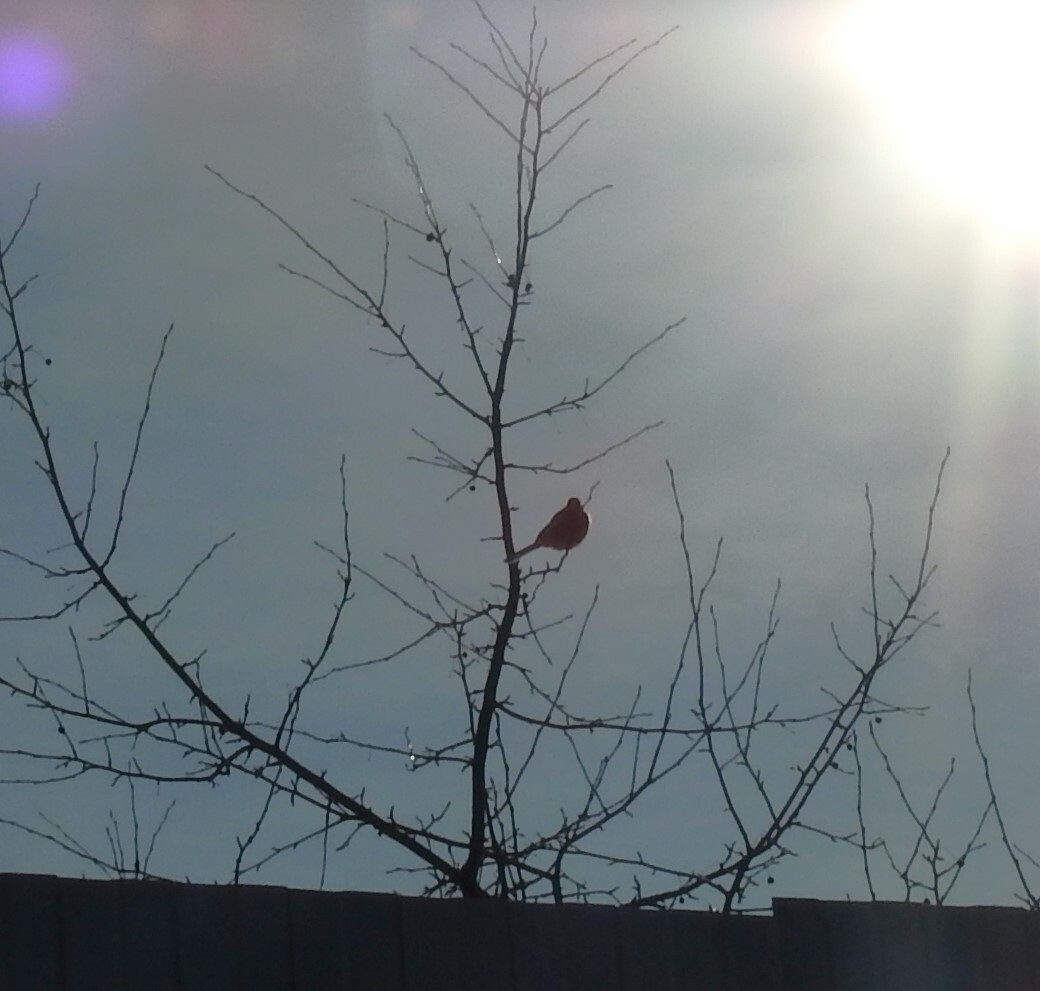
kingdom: Animalia
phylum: Chordata
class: Aves
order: Passeriformes
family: Fringillidae
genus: Carpodacus
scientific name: Carpodacus sibiricus
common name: Long-tailed rosefinch
